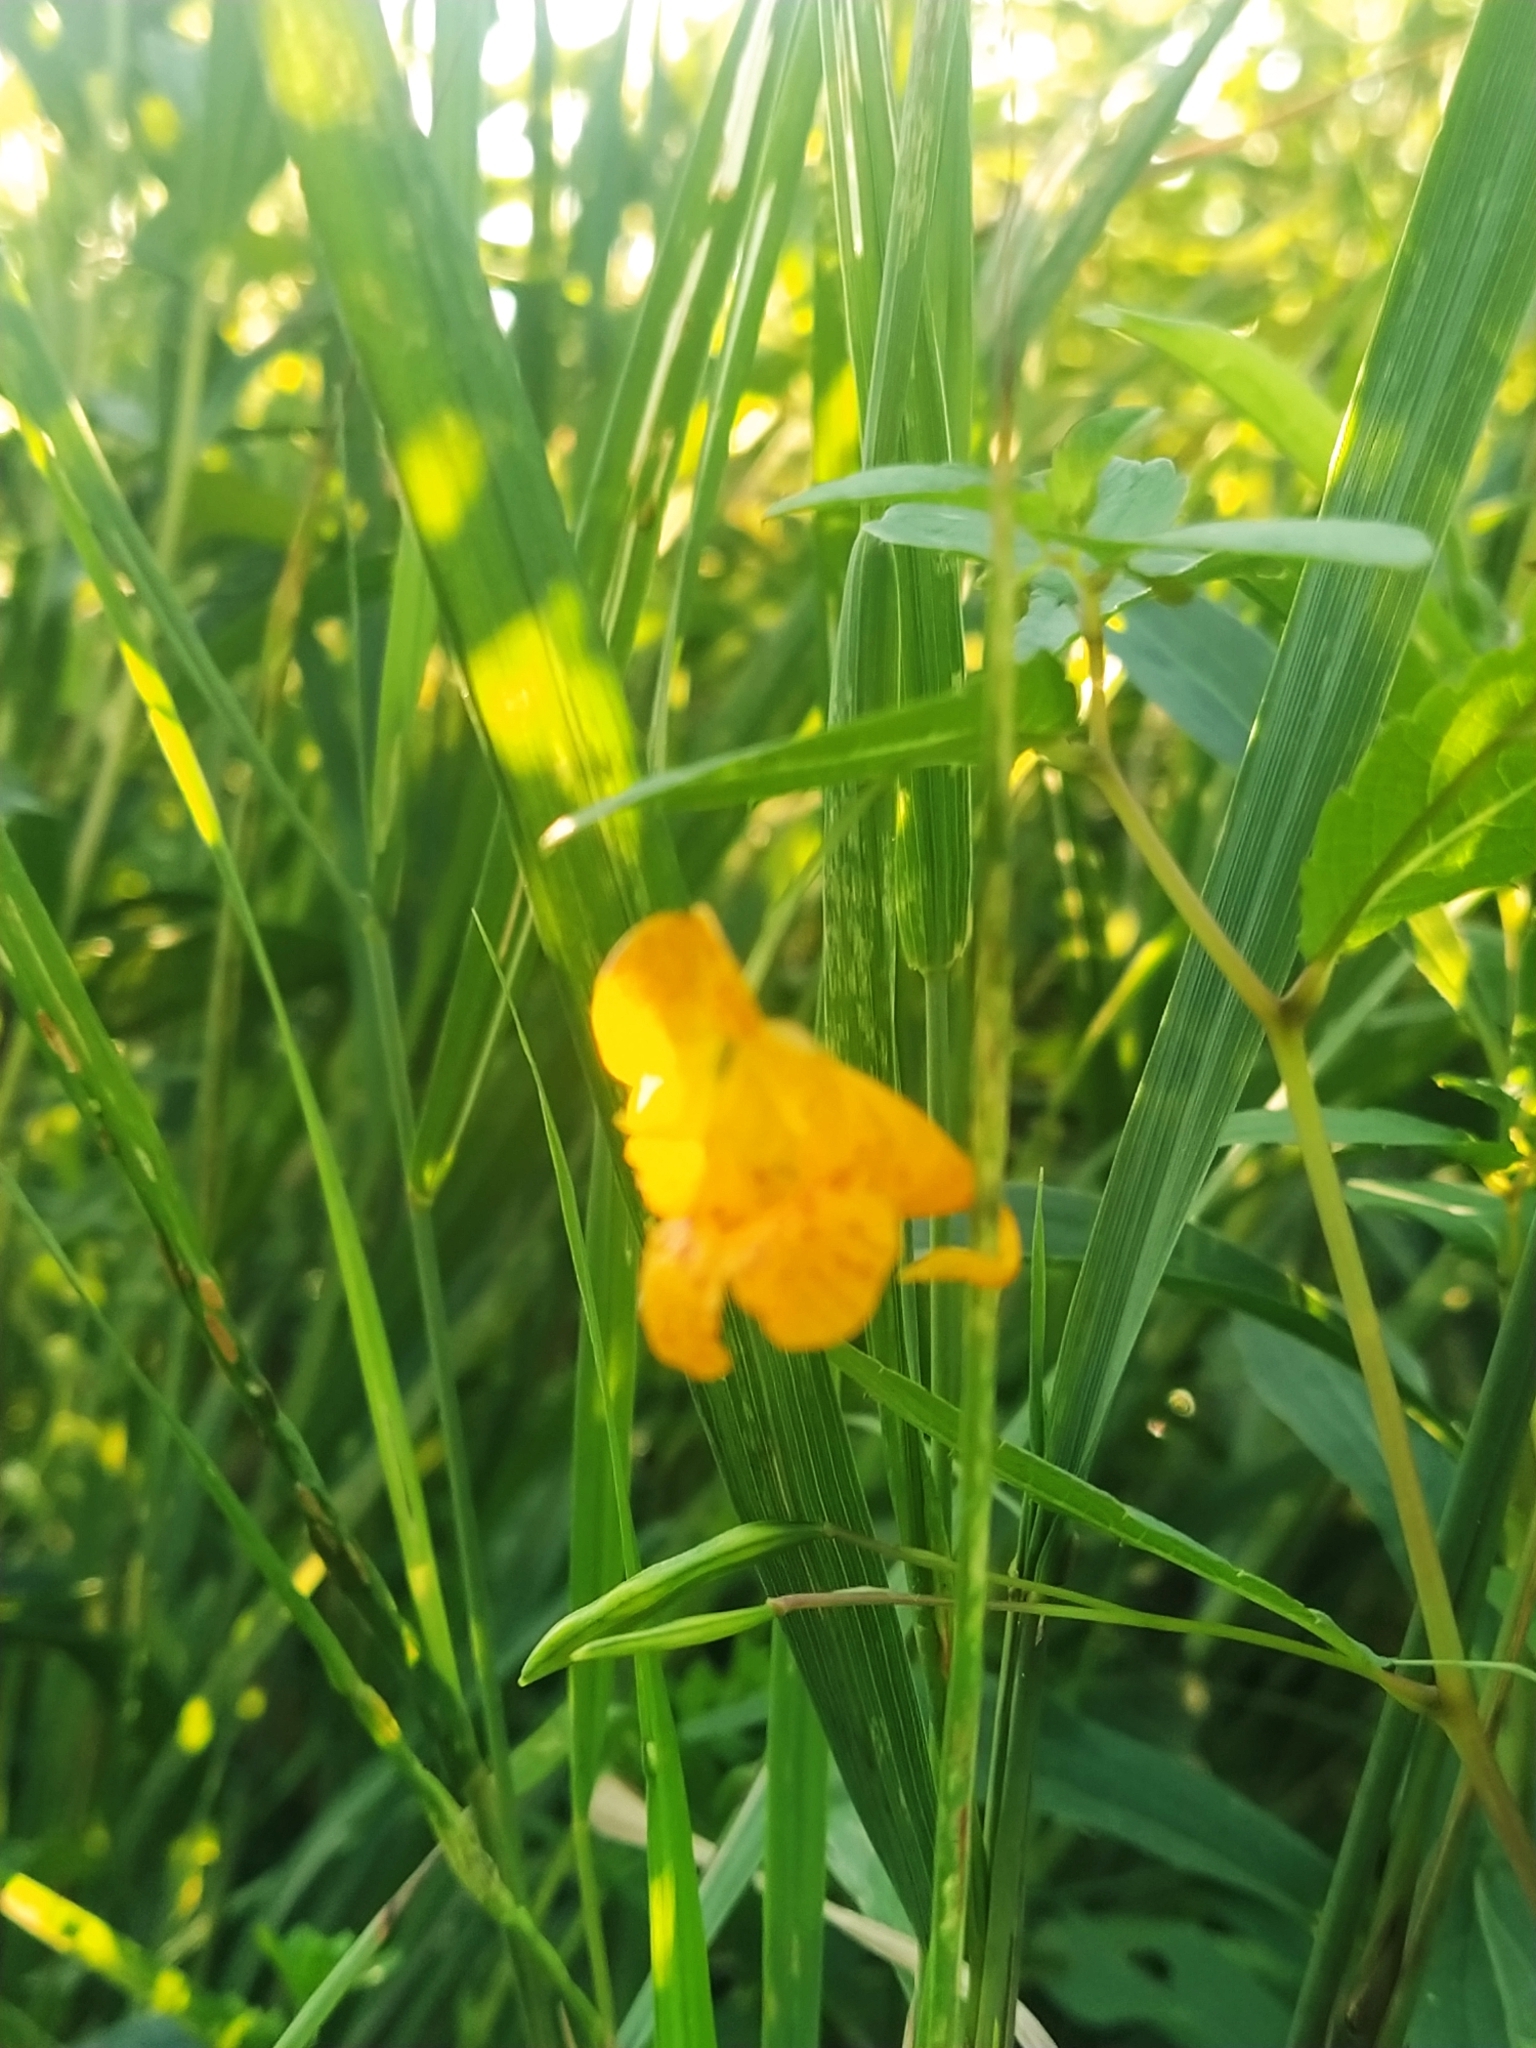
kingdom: Plantae
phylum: Tracheophyta
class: Magnoliopsida
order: Ericales
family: Balsaminaceae
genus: Impatiens
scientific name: Impatiens capensis
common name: Orange balsam
